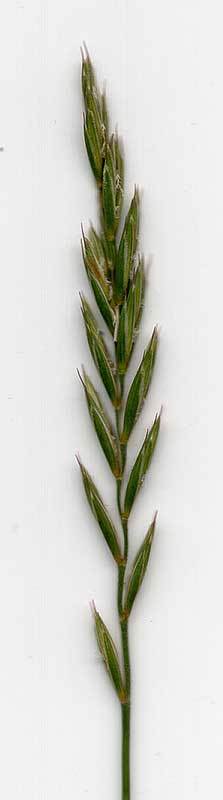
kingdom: Plantae
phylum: Tracheophyta
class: Liliopsida
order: Poales
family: Poaceae
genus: Elymus
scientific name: Elymus repens
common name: Quackgrass
